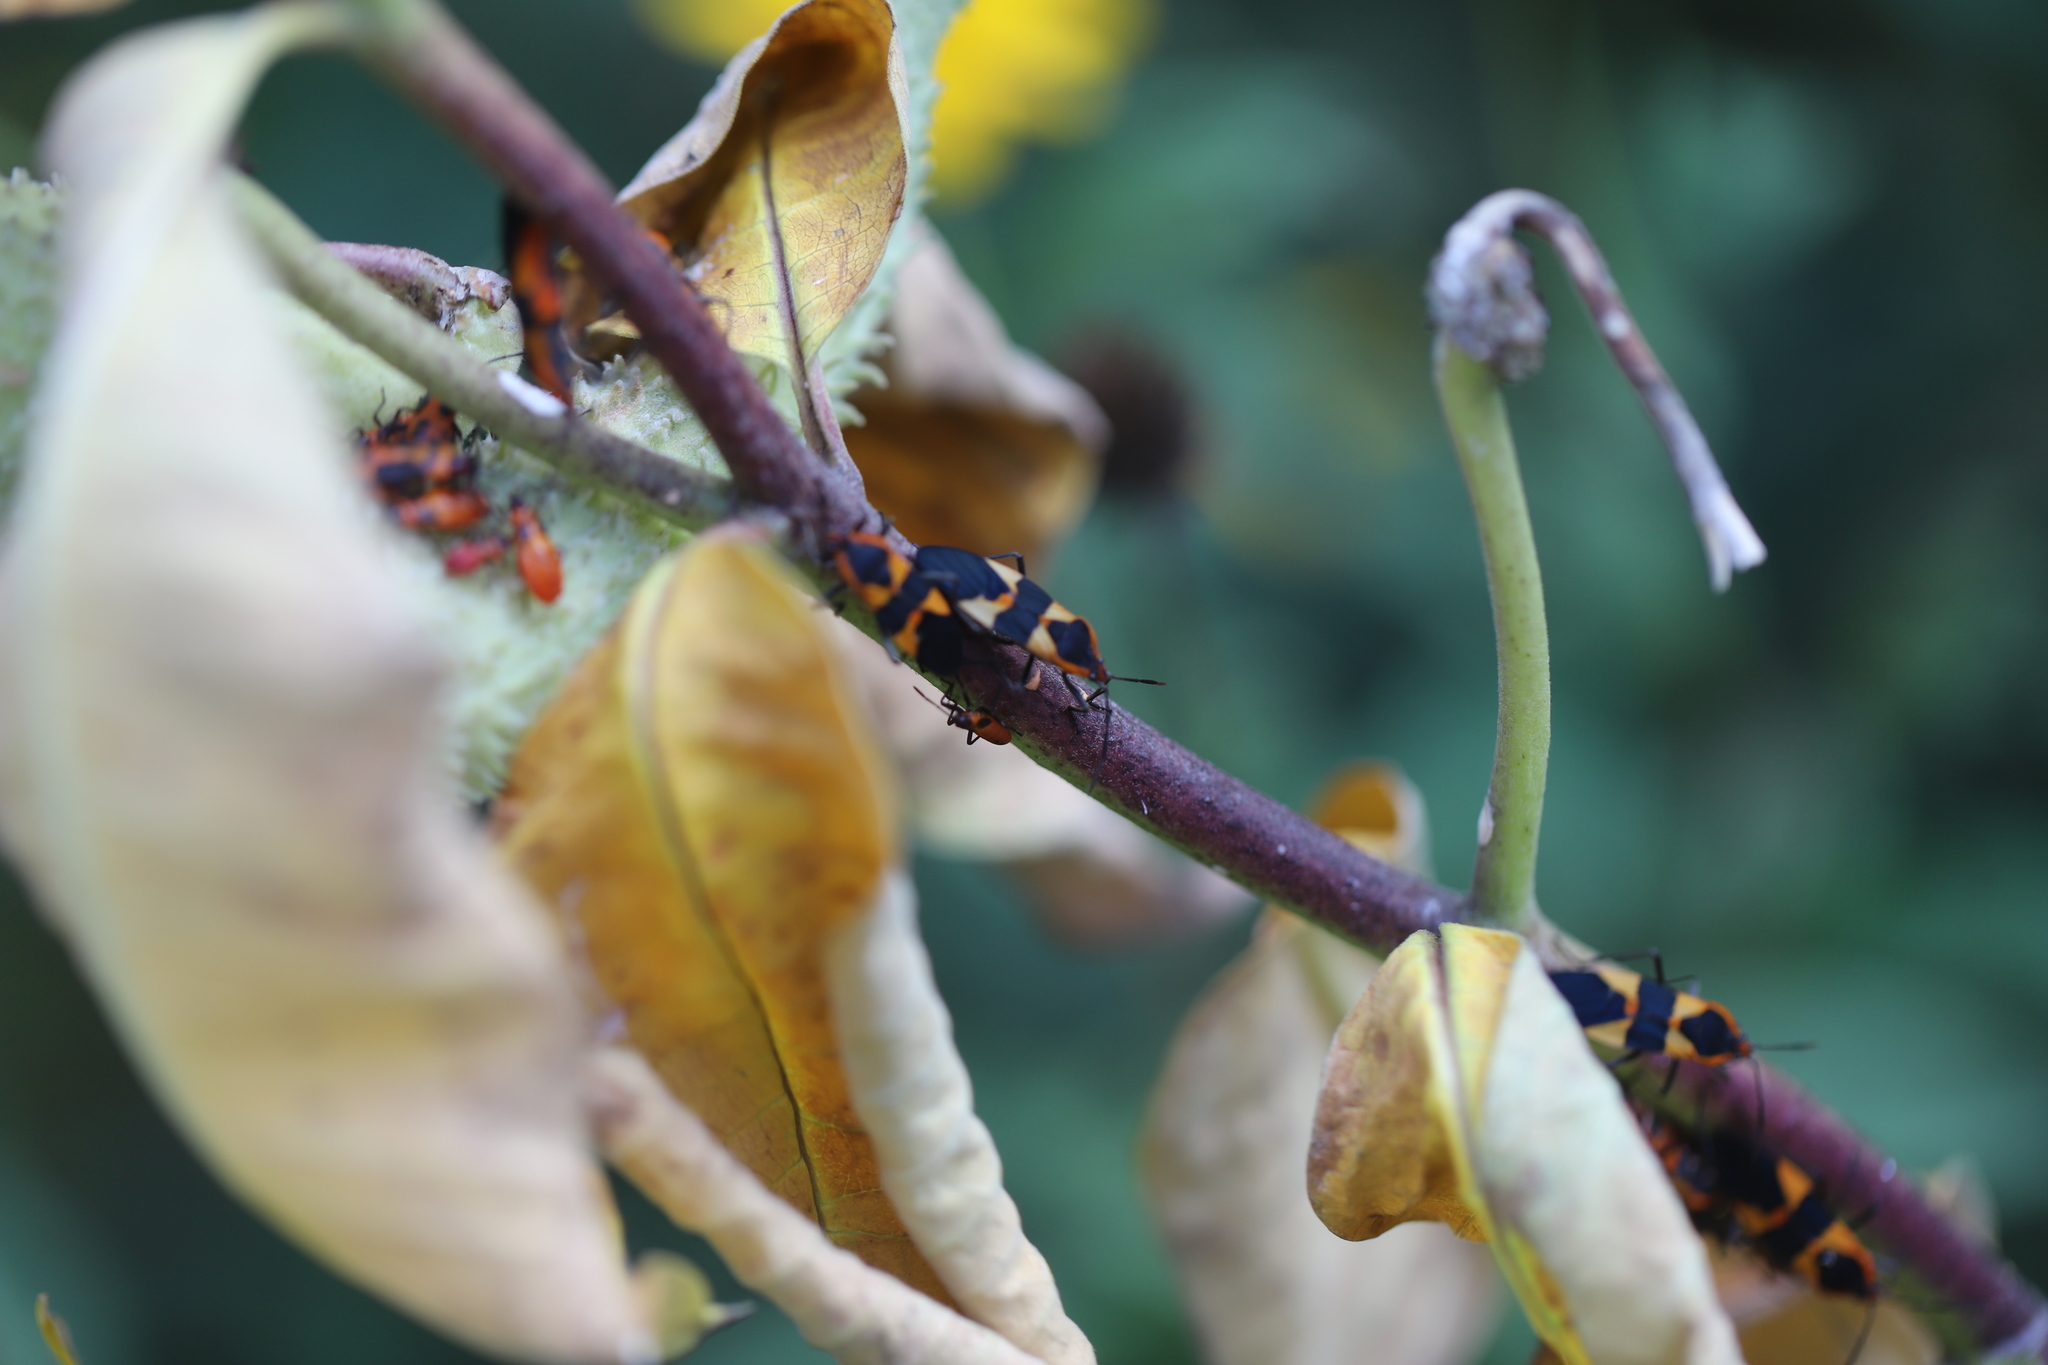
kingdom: Animalia
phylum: Arthropoda
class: Insecta
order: Hemiptera
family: Lygaeidae
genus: Oncopeltus
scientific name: Oncopeltus fasciatus
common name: Large milkweed bug
